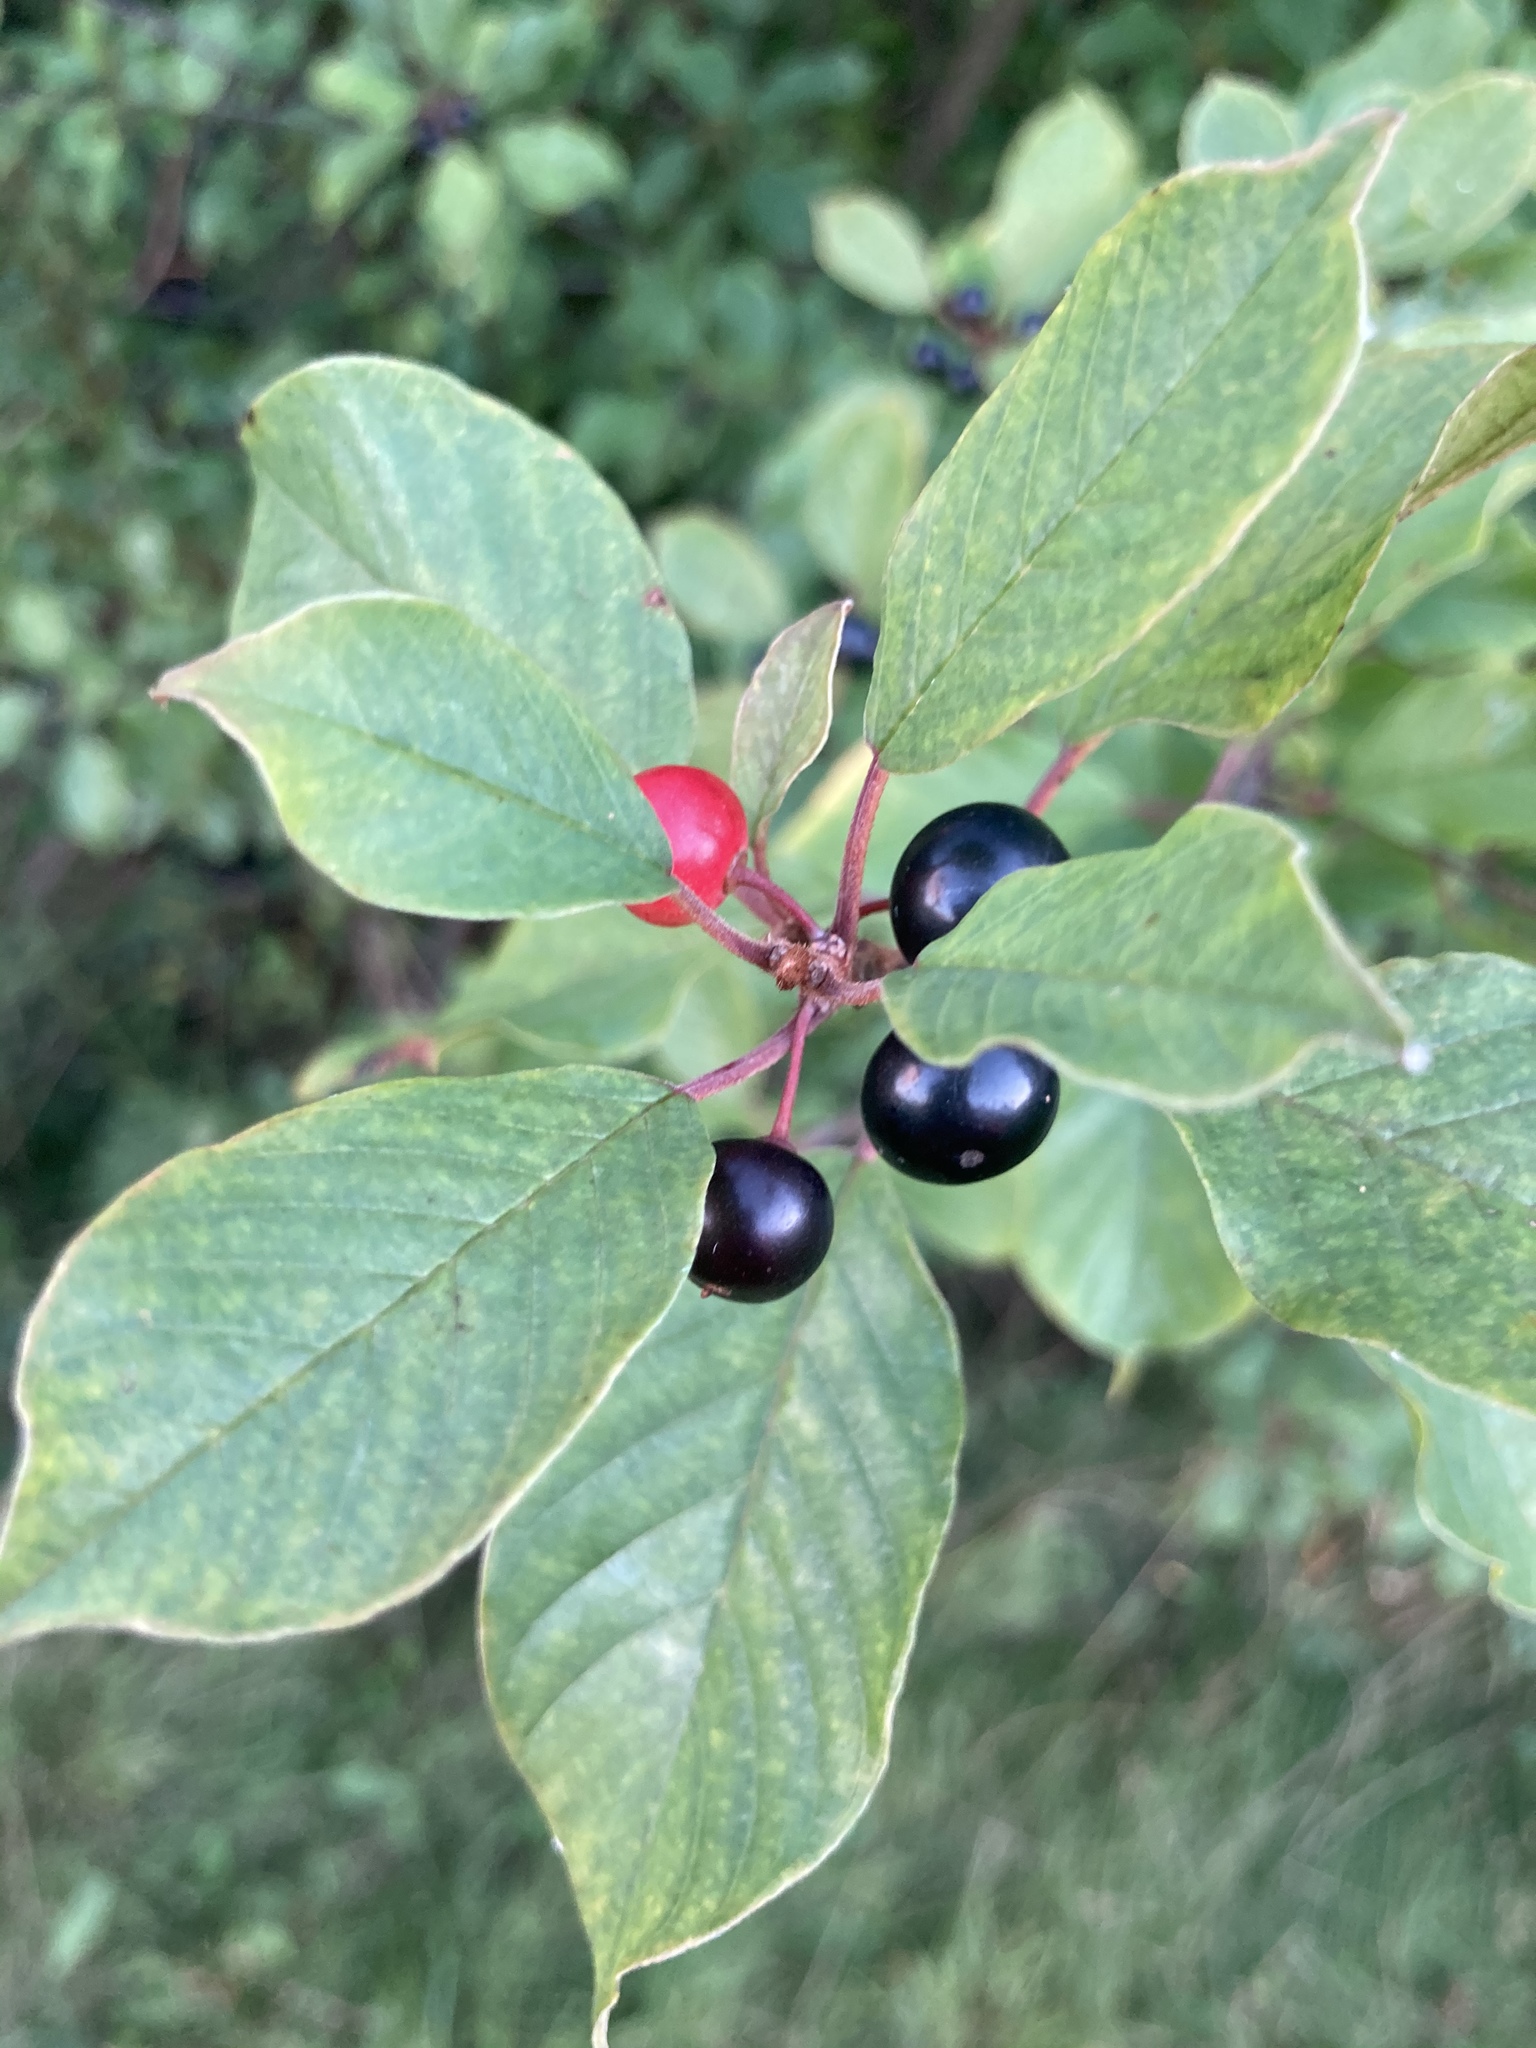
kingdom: Plantae
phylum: Tracheophyta
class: Magnoliopsida
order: Rosales
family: Rhamnaceae
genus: Frangula
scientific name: Frangula alnus
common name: Alder buckthorn
